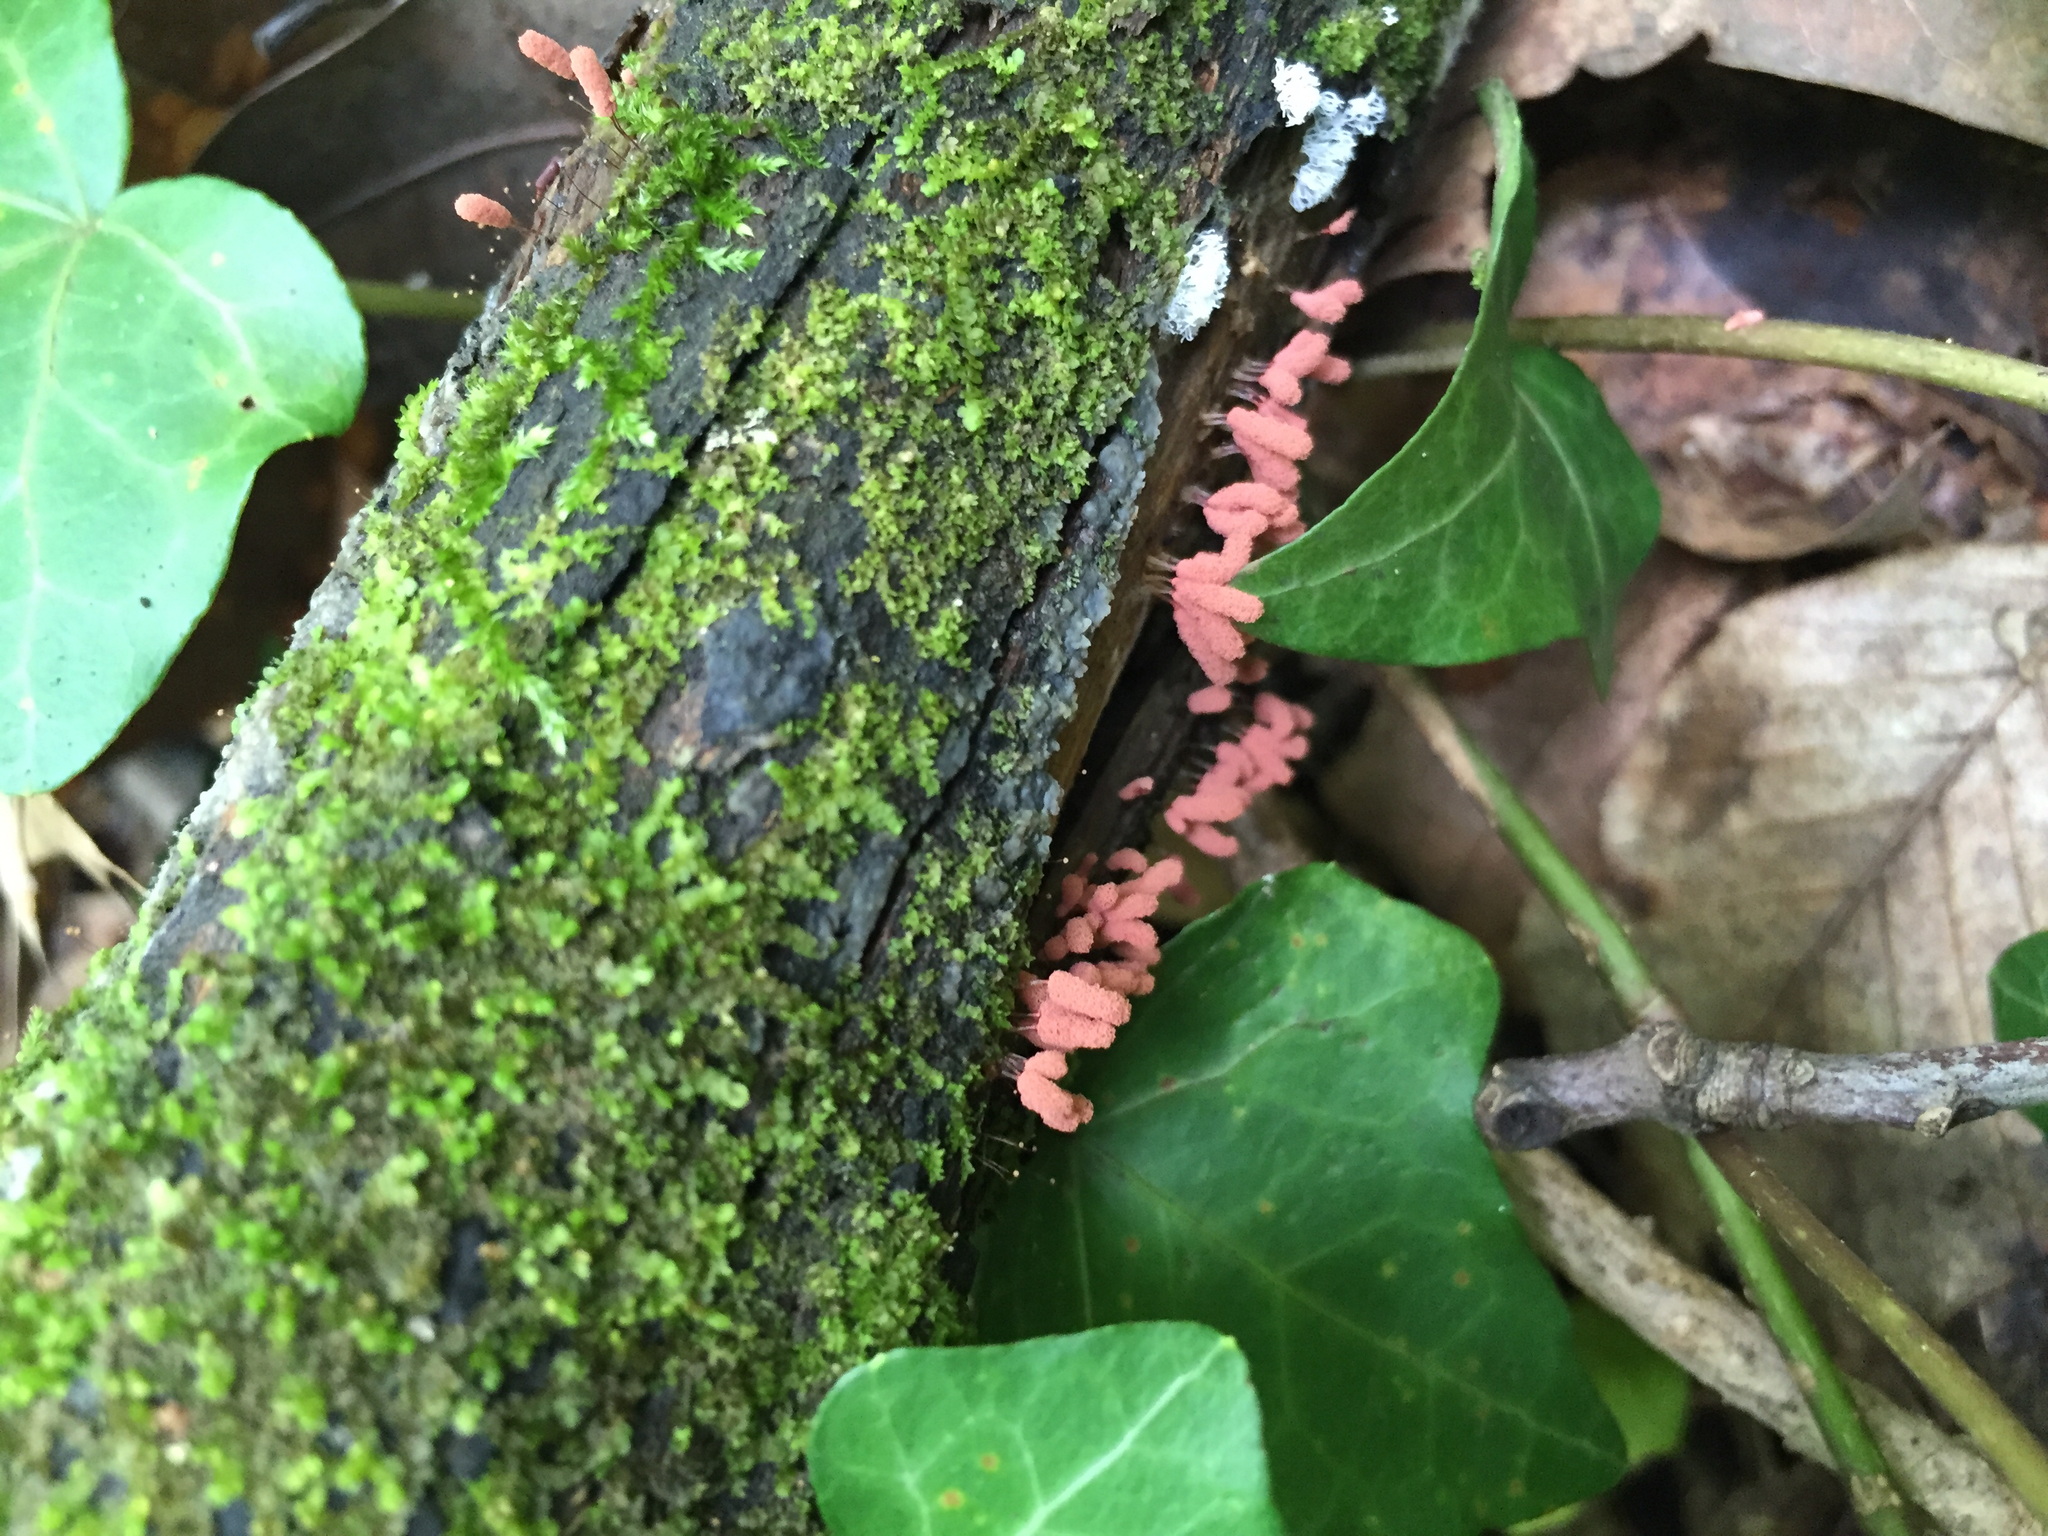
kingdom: Protozoa
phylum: Mycetozoa
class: Myxomycetes
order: Trichiales
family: Arcyriaceae
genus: Arcyria
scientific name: Arcyria denudata
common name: Carnival candy slime mold
